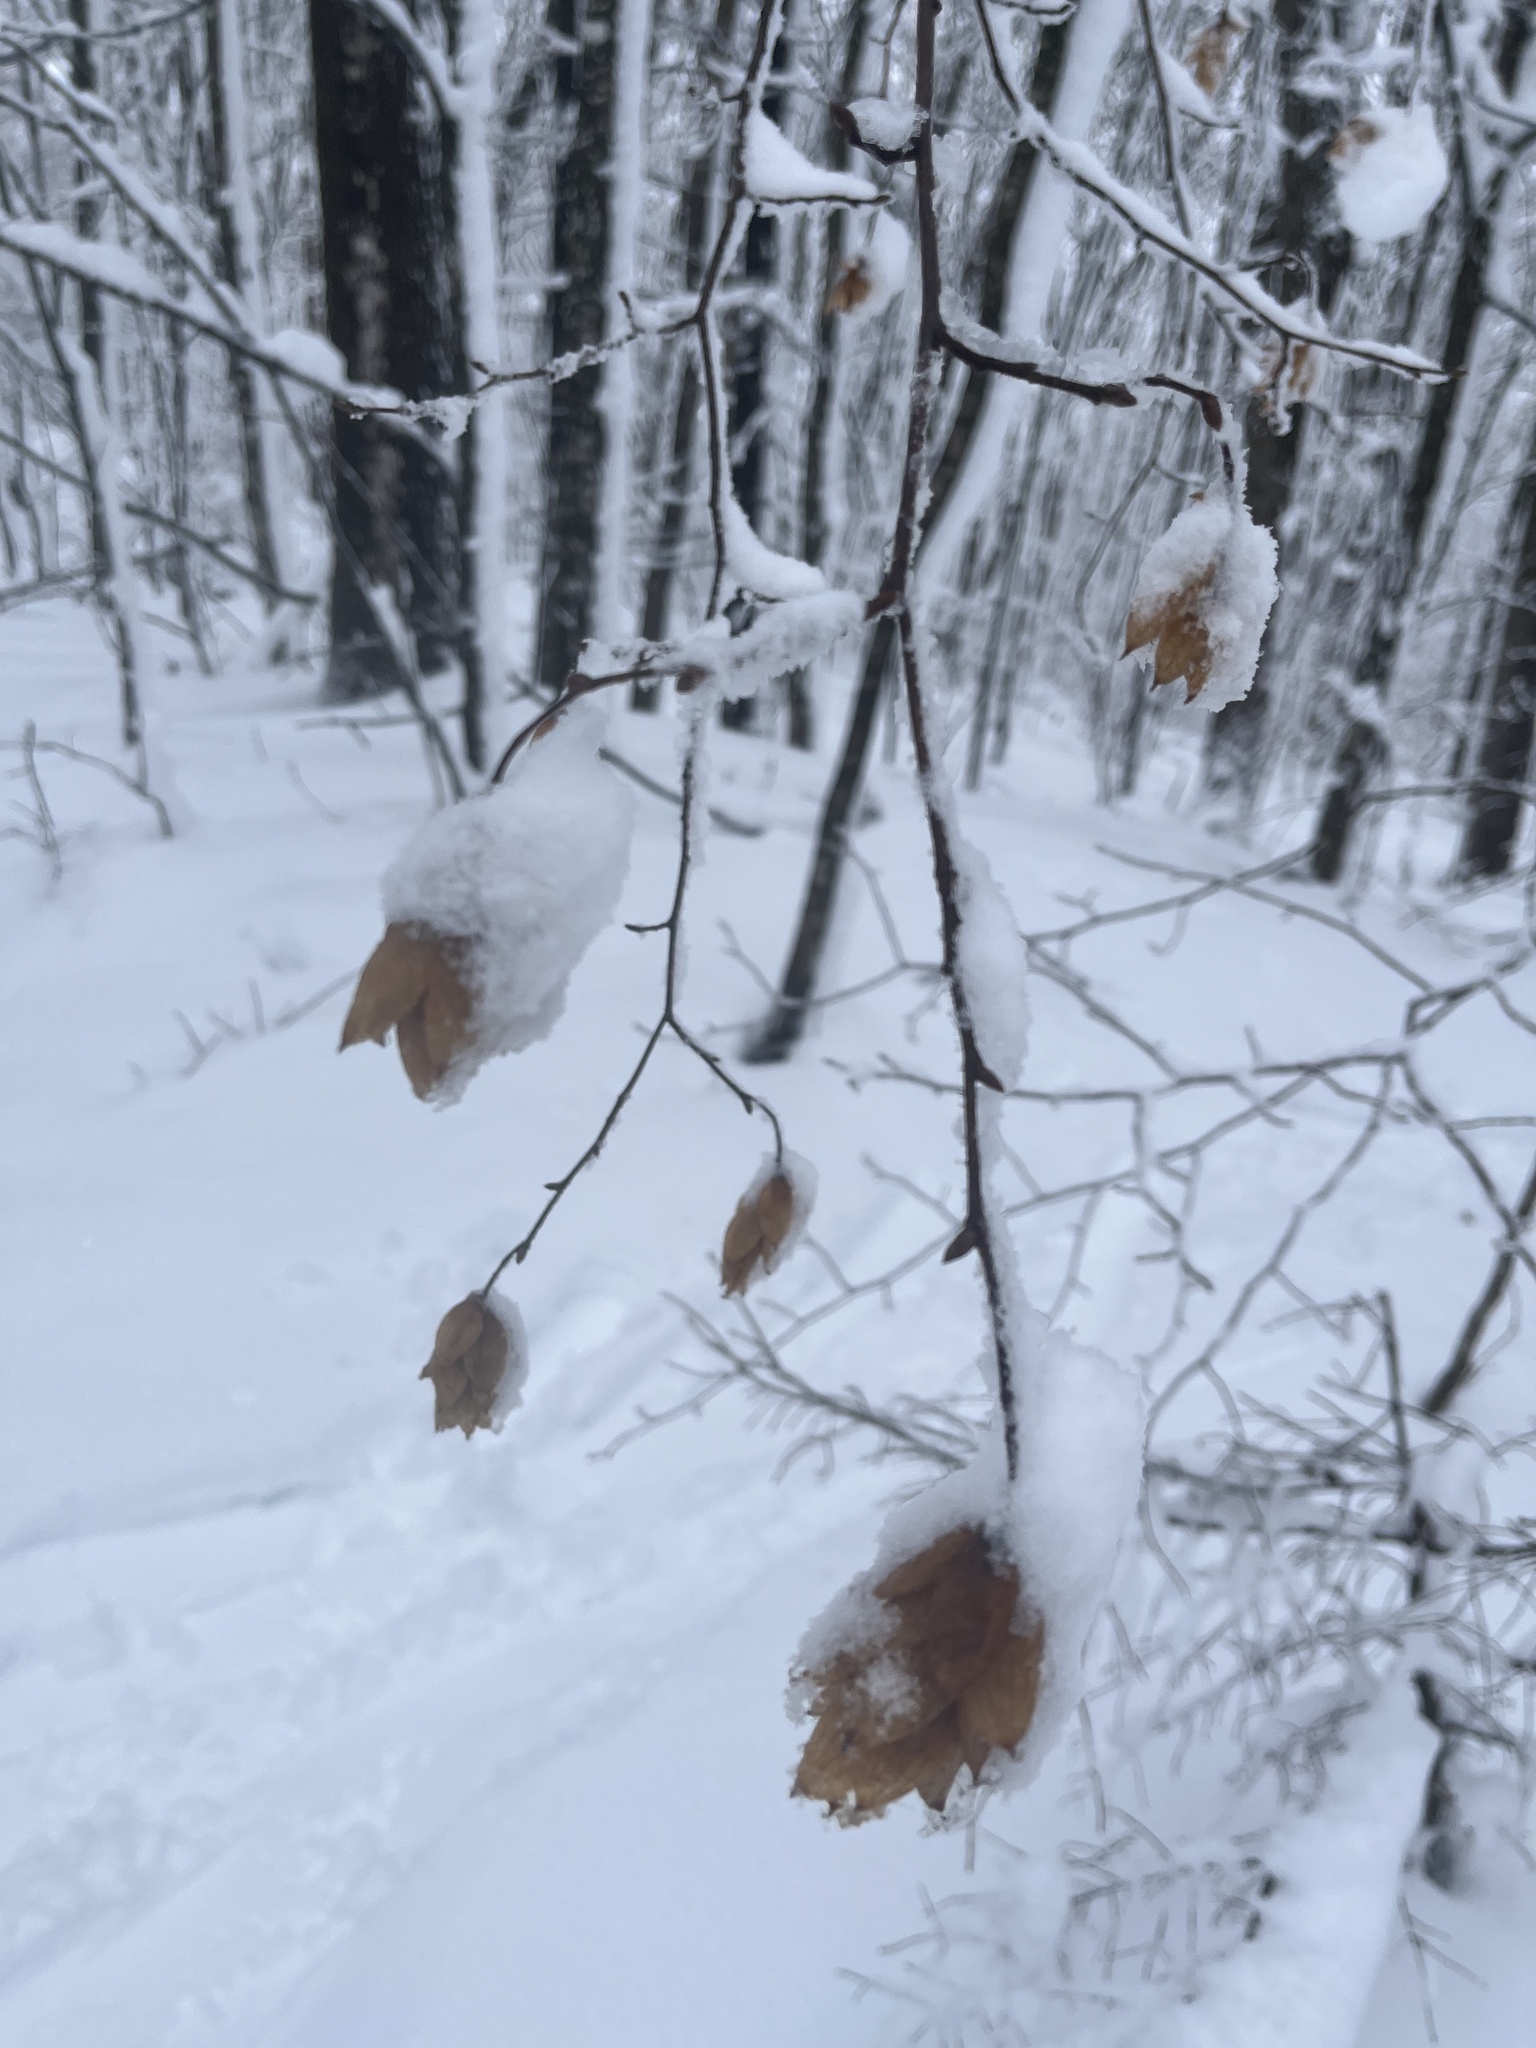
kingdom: Plantae
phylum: Tracheophyta
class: Magnoliopsida
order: Fagales
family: Betulaceae
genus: Ostrya
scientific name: Ostrya virginiana
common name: Ironwood
